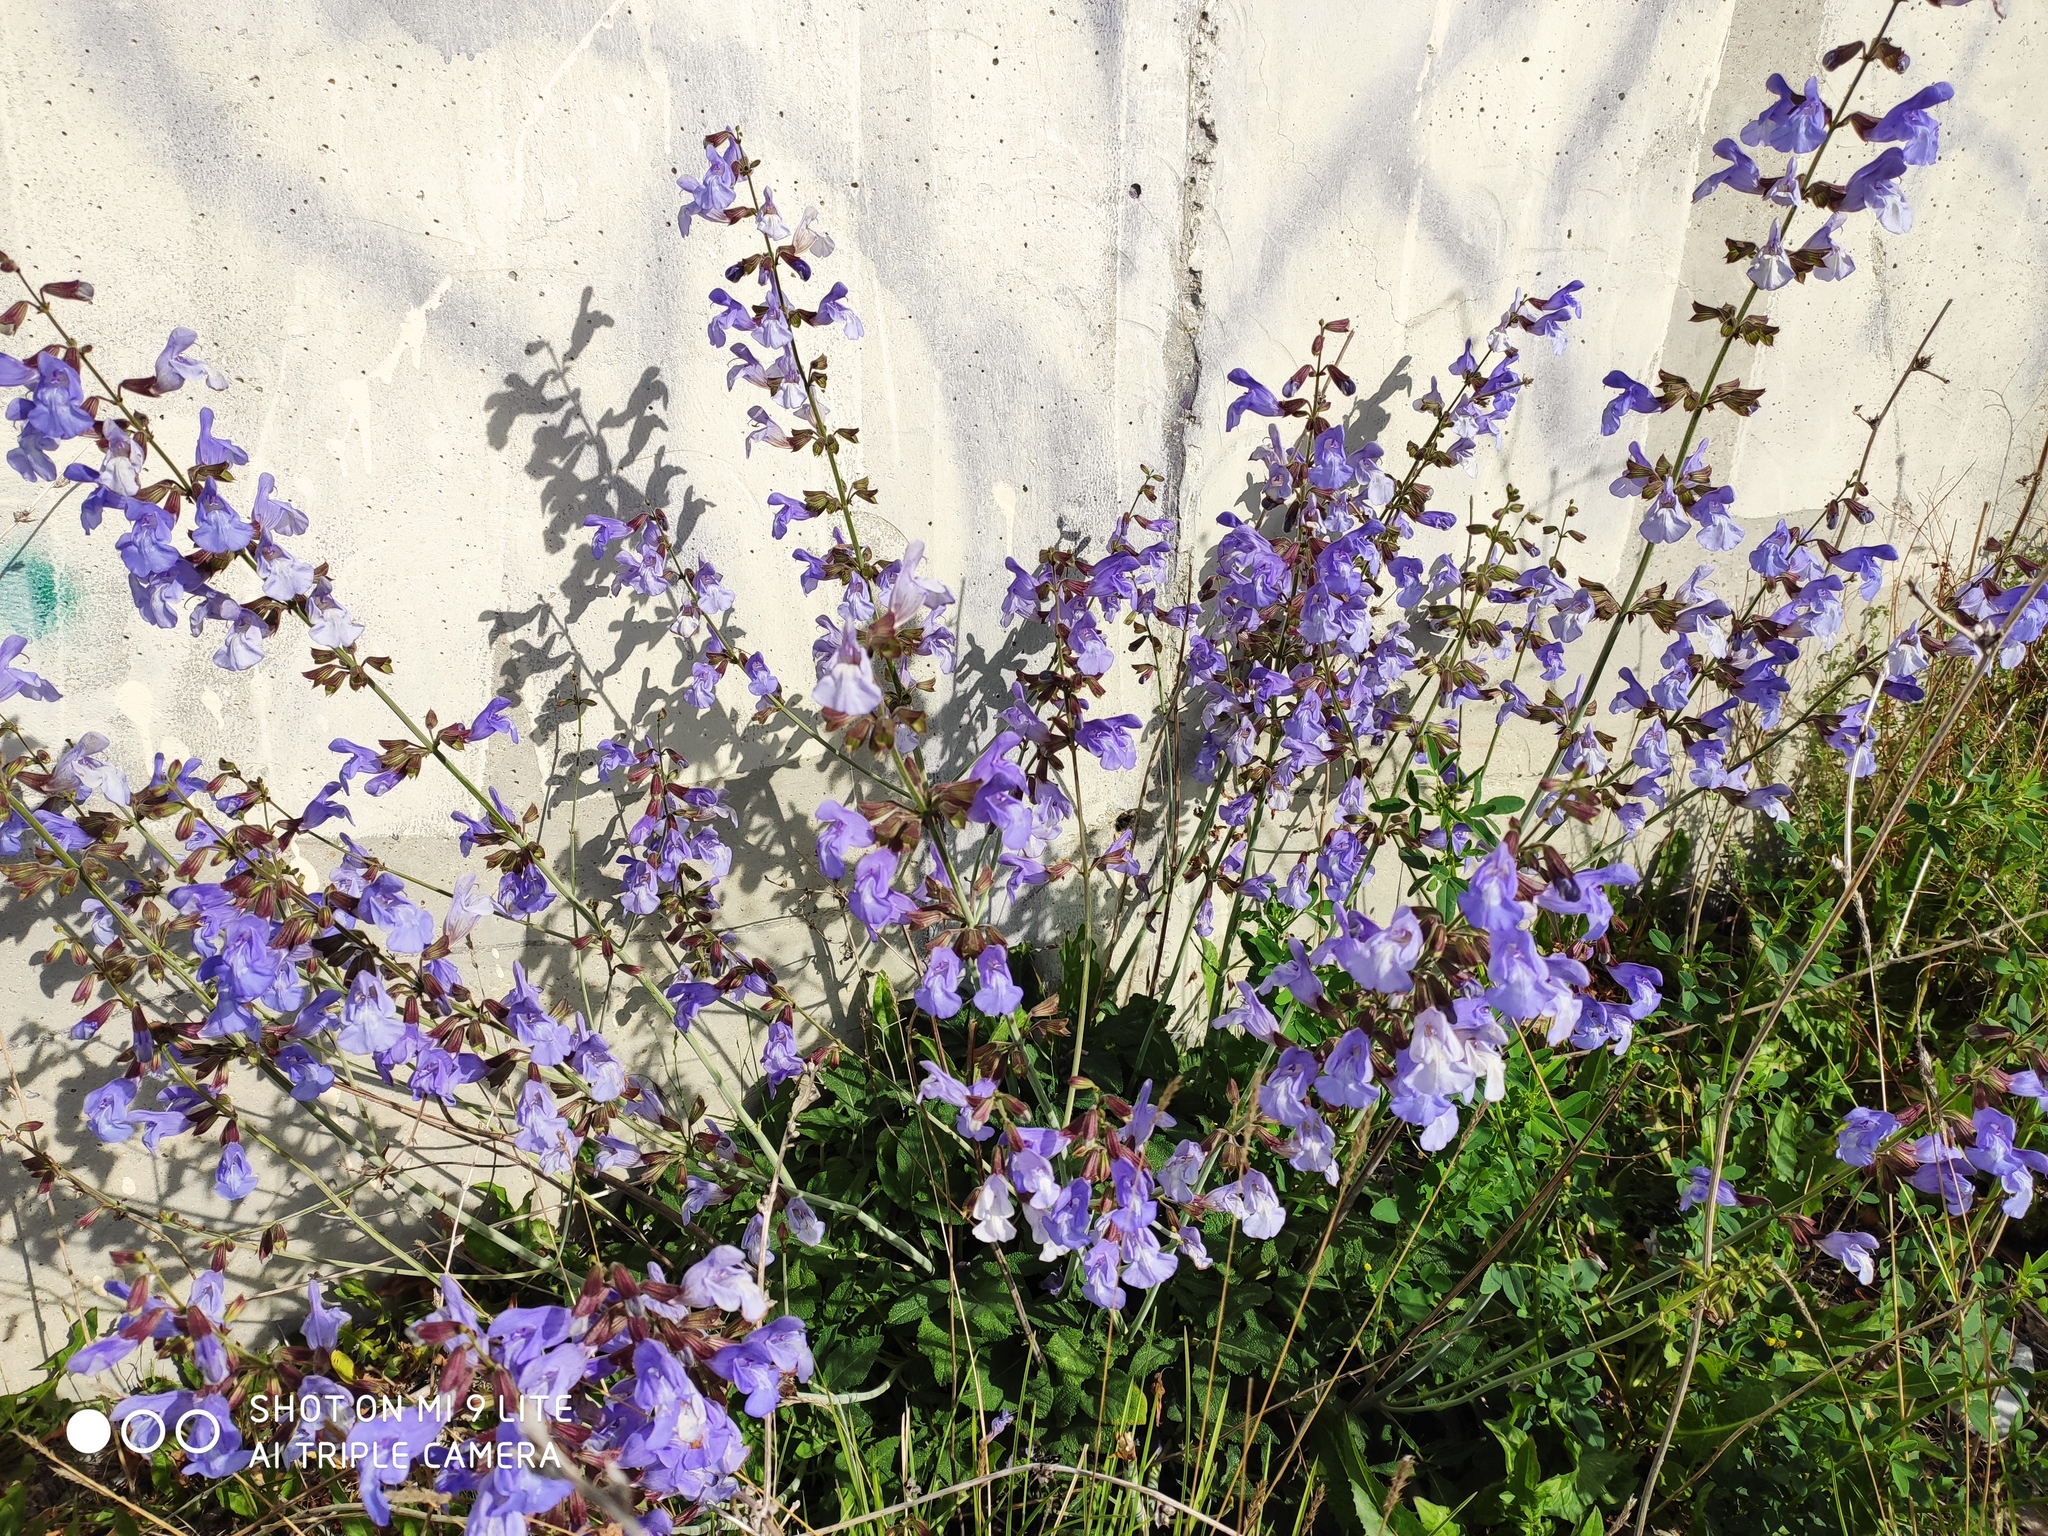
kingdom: Plantae
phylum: Tracheophyta
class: Magnoliopsida
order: Lamiales
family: Lamiaceae
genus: Salvia
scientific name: Salvia ringens
